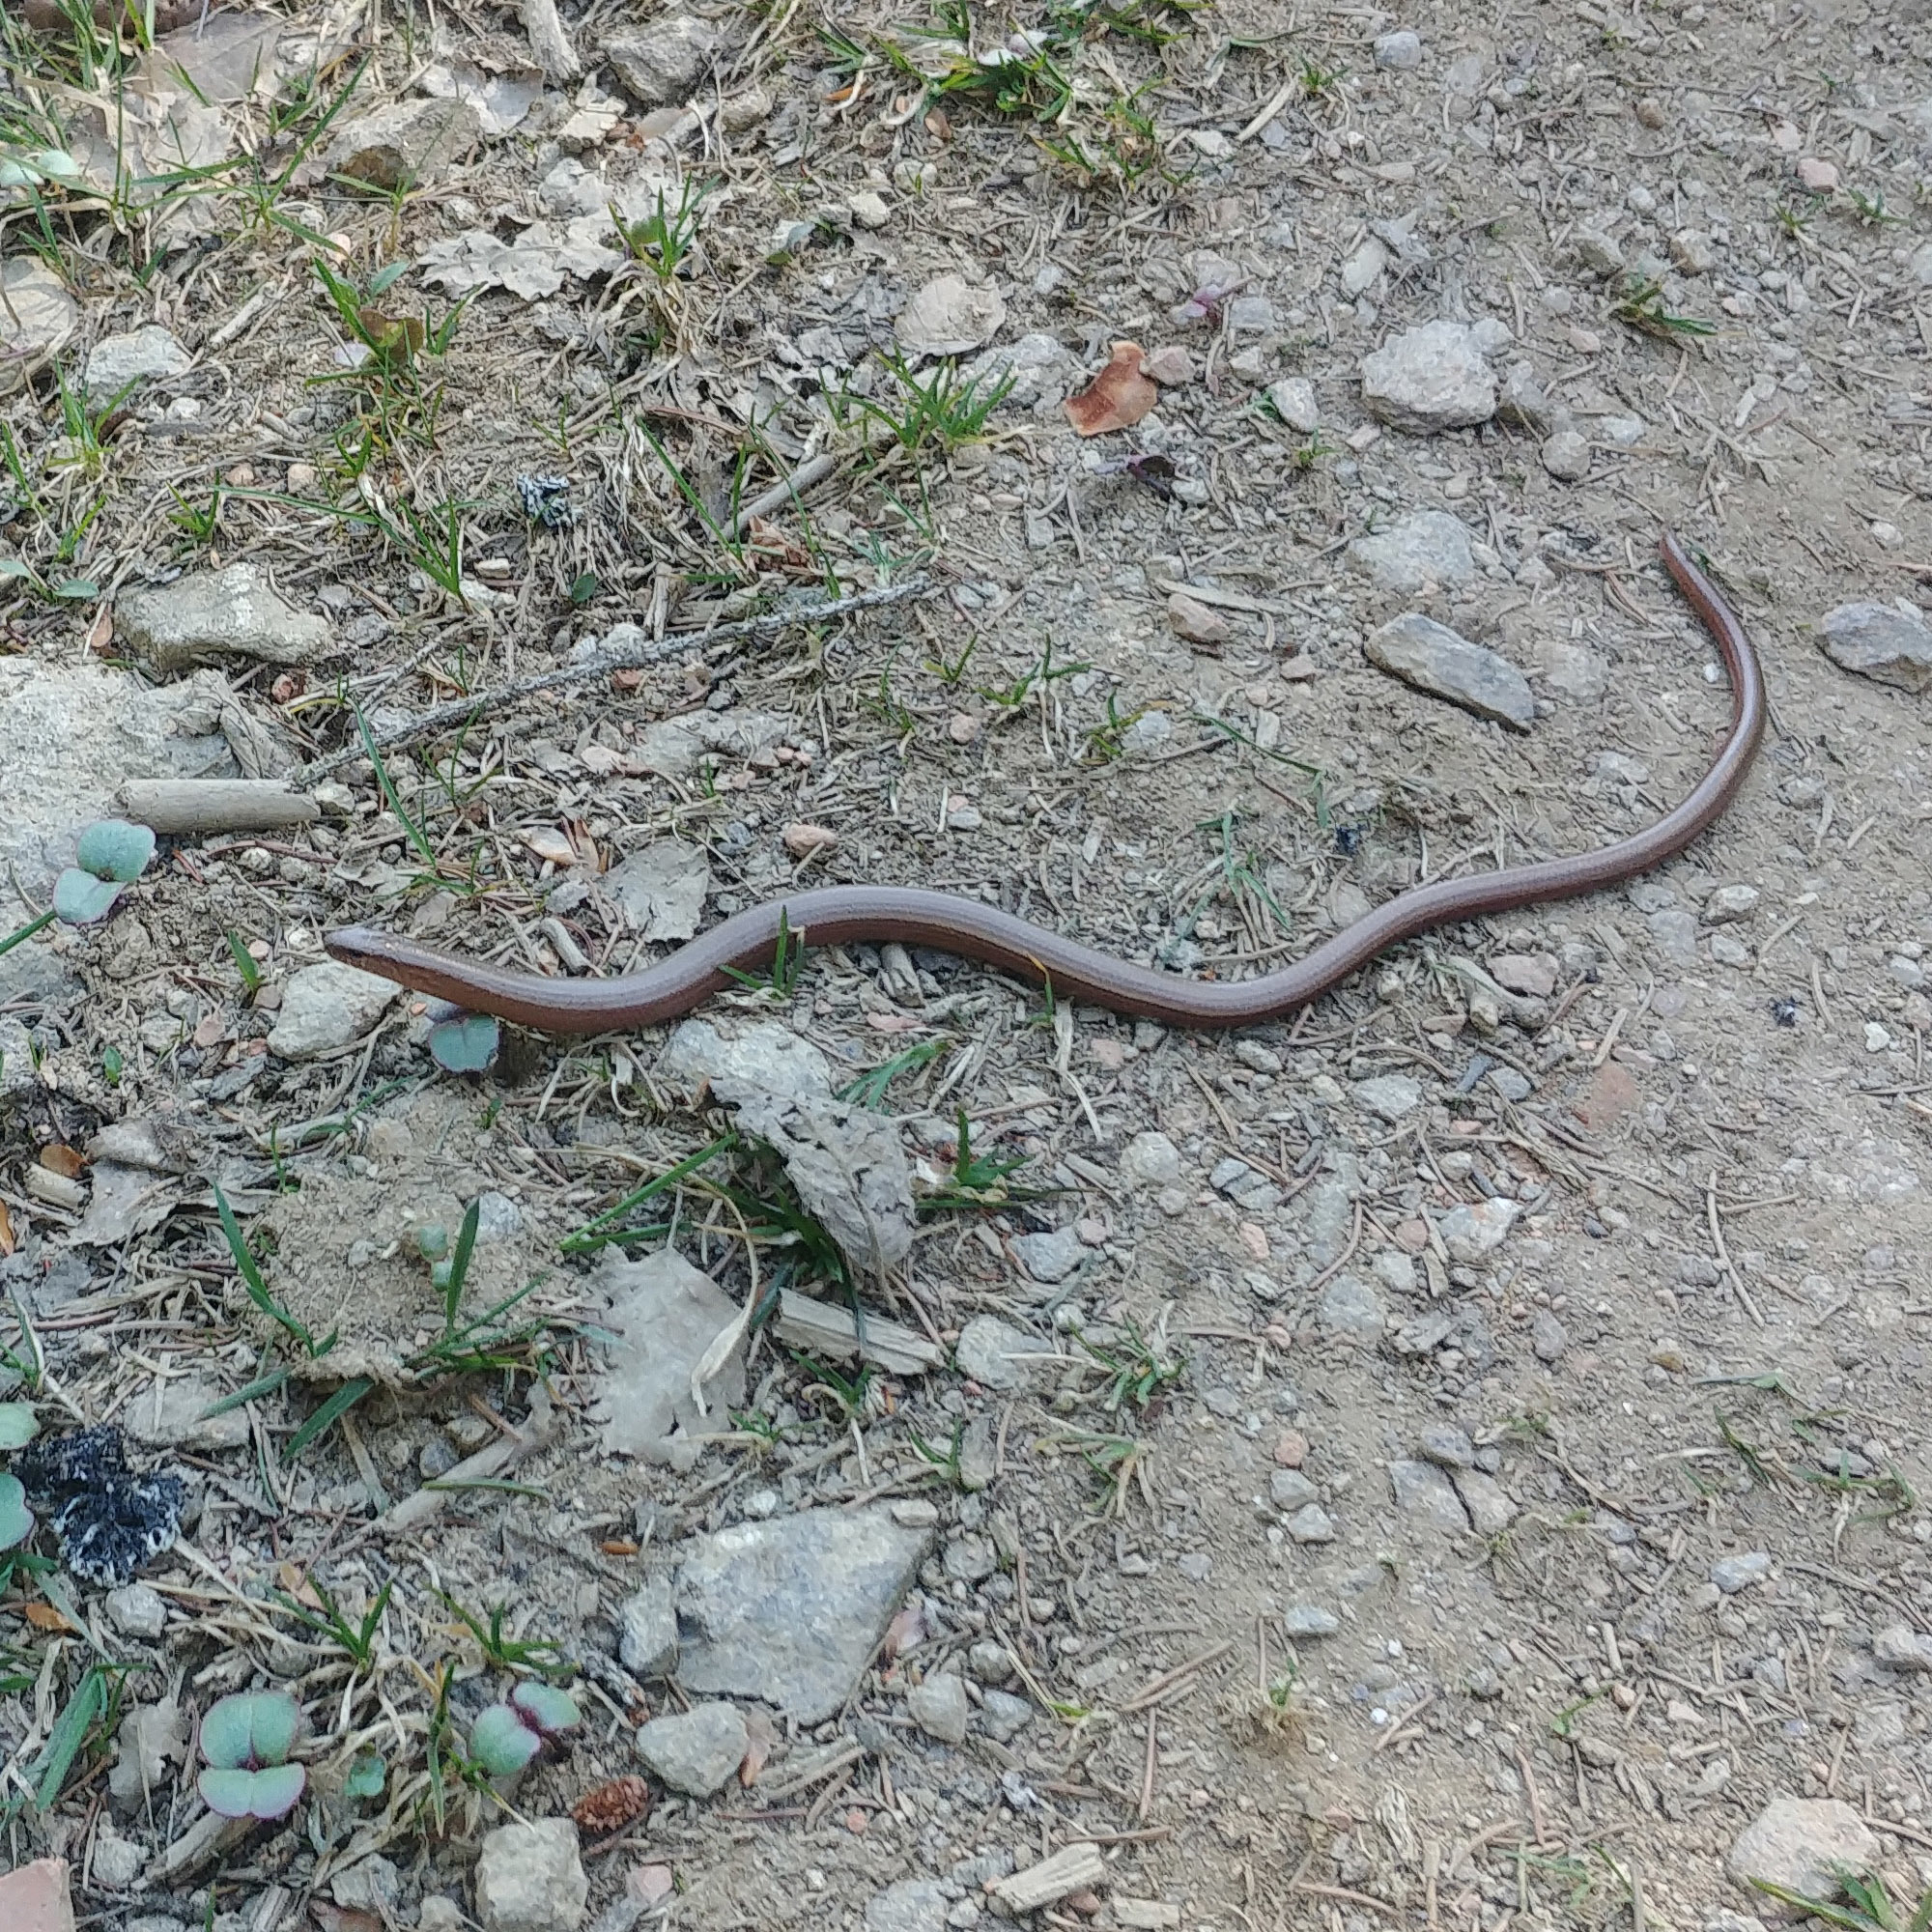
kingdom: Animalia
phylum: Chordata
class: Squamata
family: Anguidae
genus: Anguis
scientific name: Anguis fragilis
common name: Slow worm
